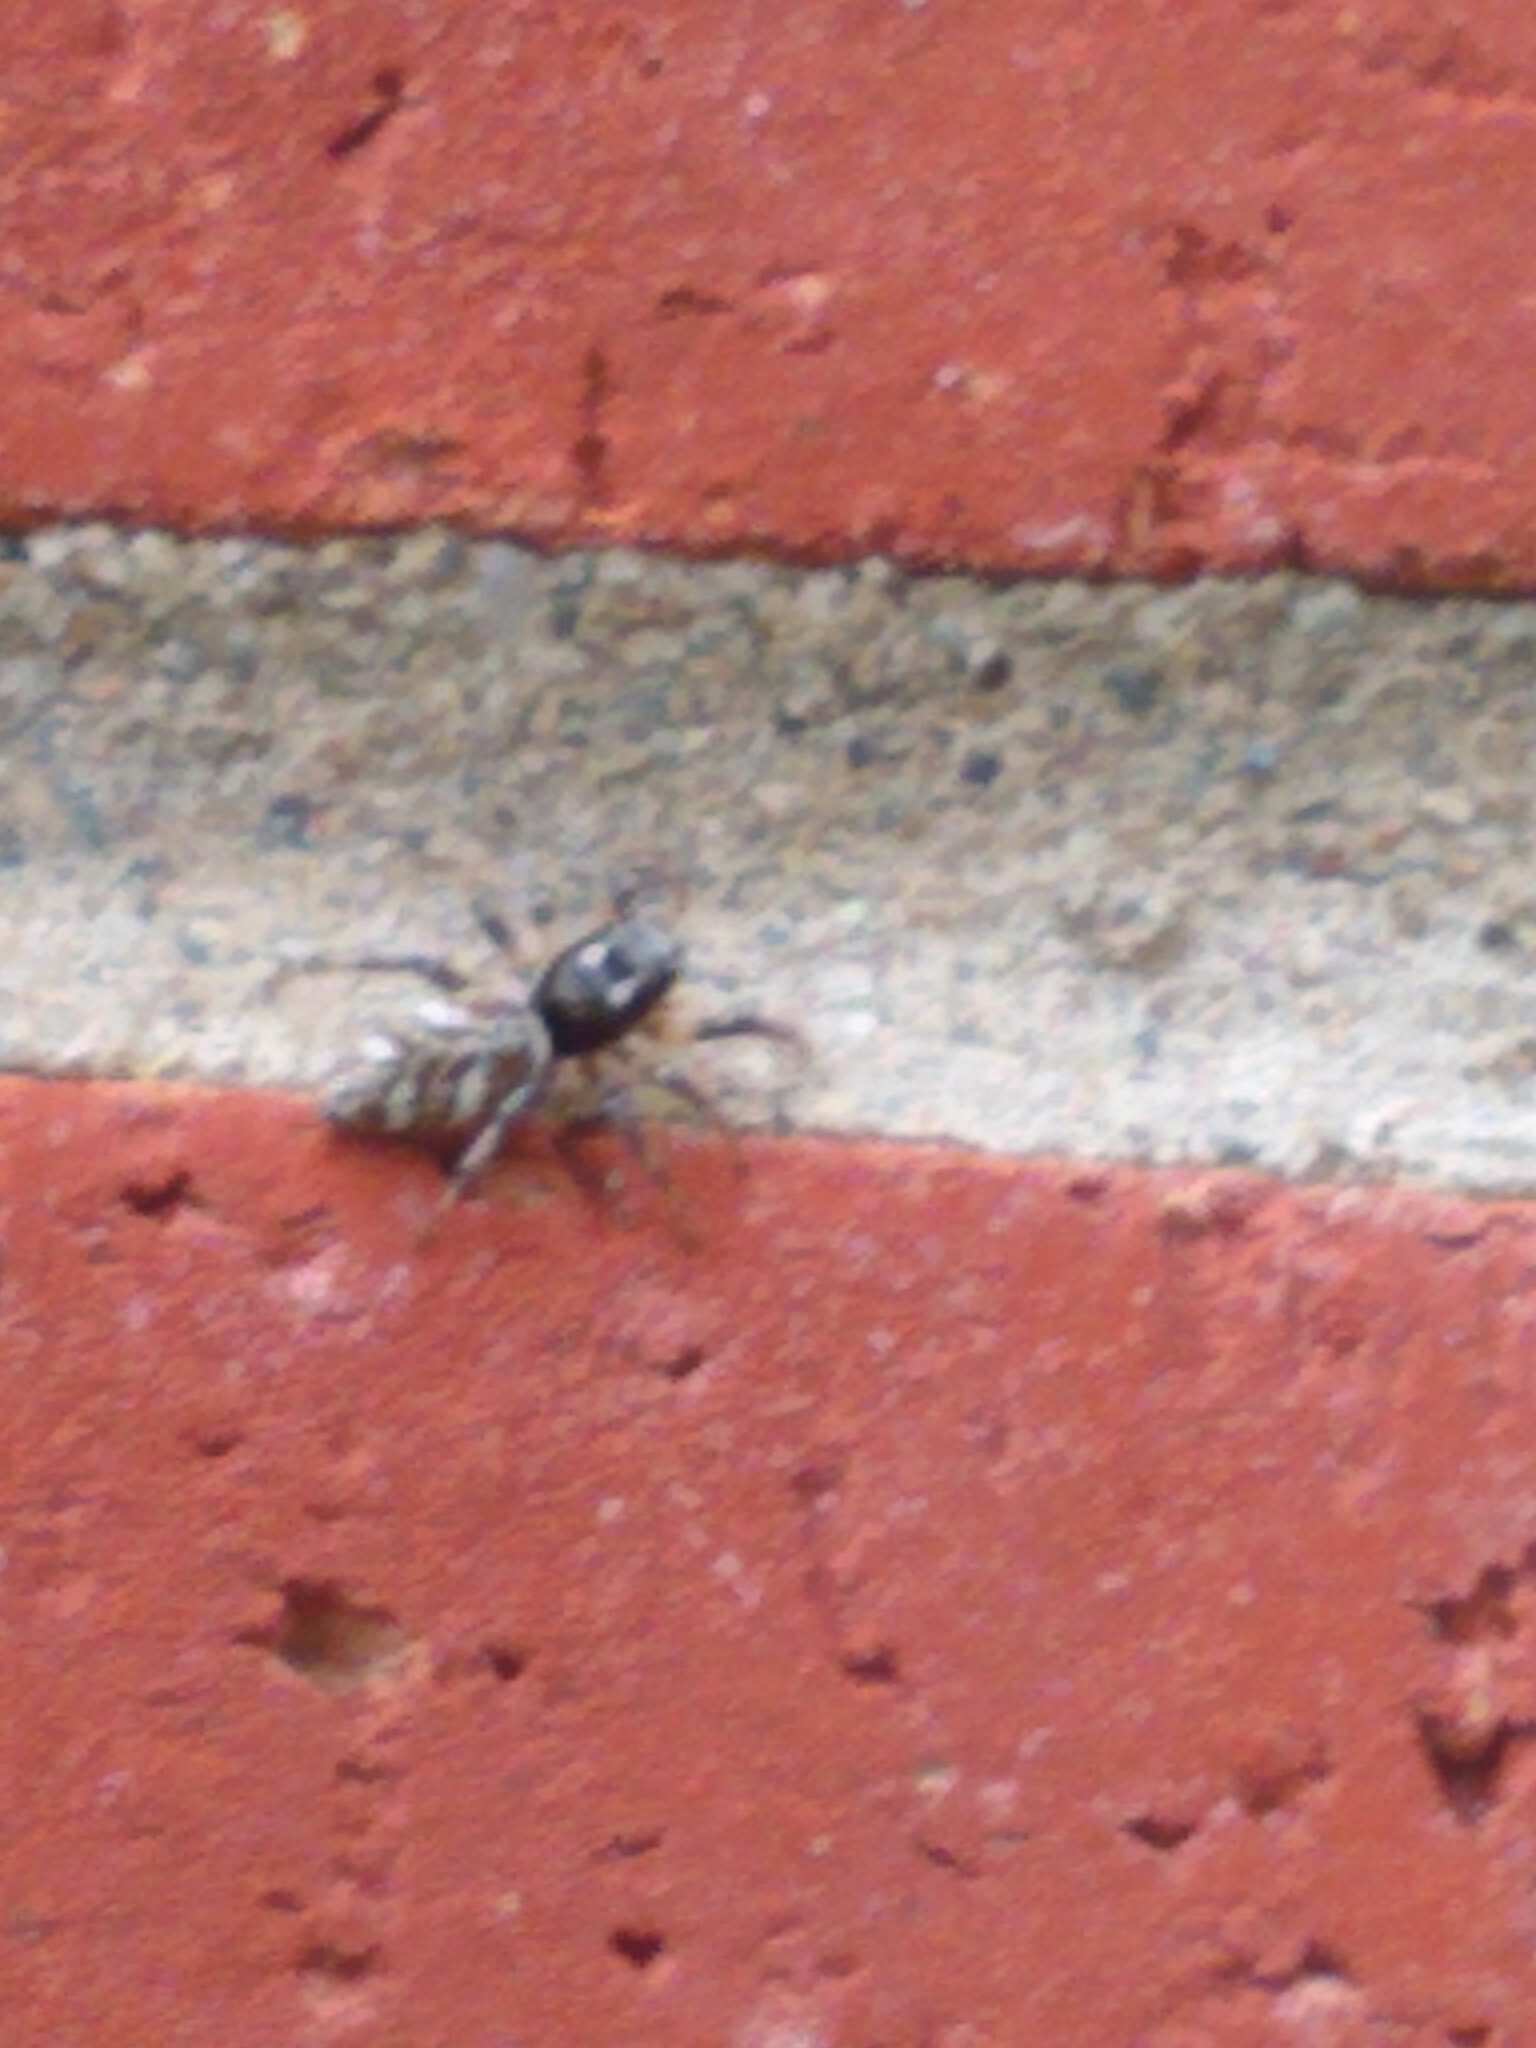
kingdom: Animalia
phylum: Arthropoda
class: Arachnida
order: Araneae
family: Salticidae
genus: Salticus
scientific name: Salticus scenicus
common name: Zebra jumper
